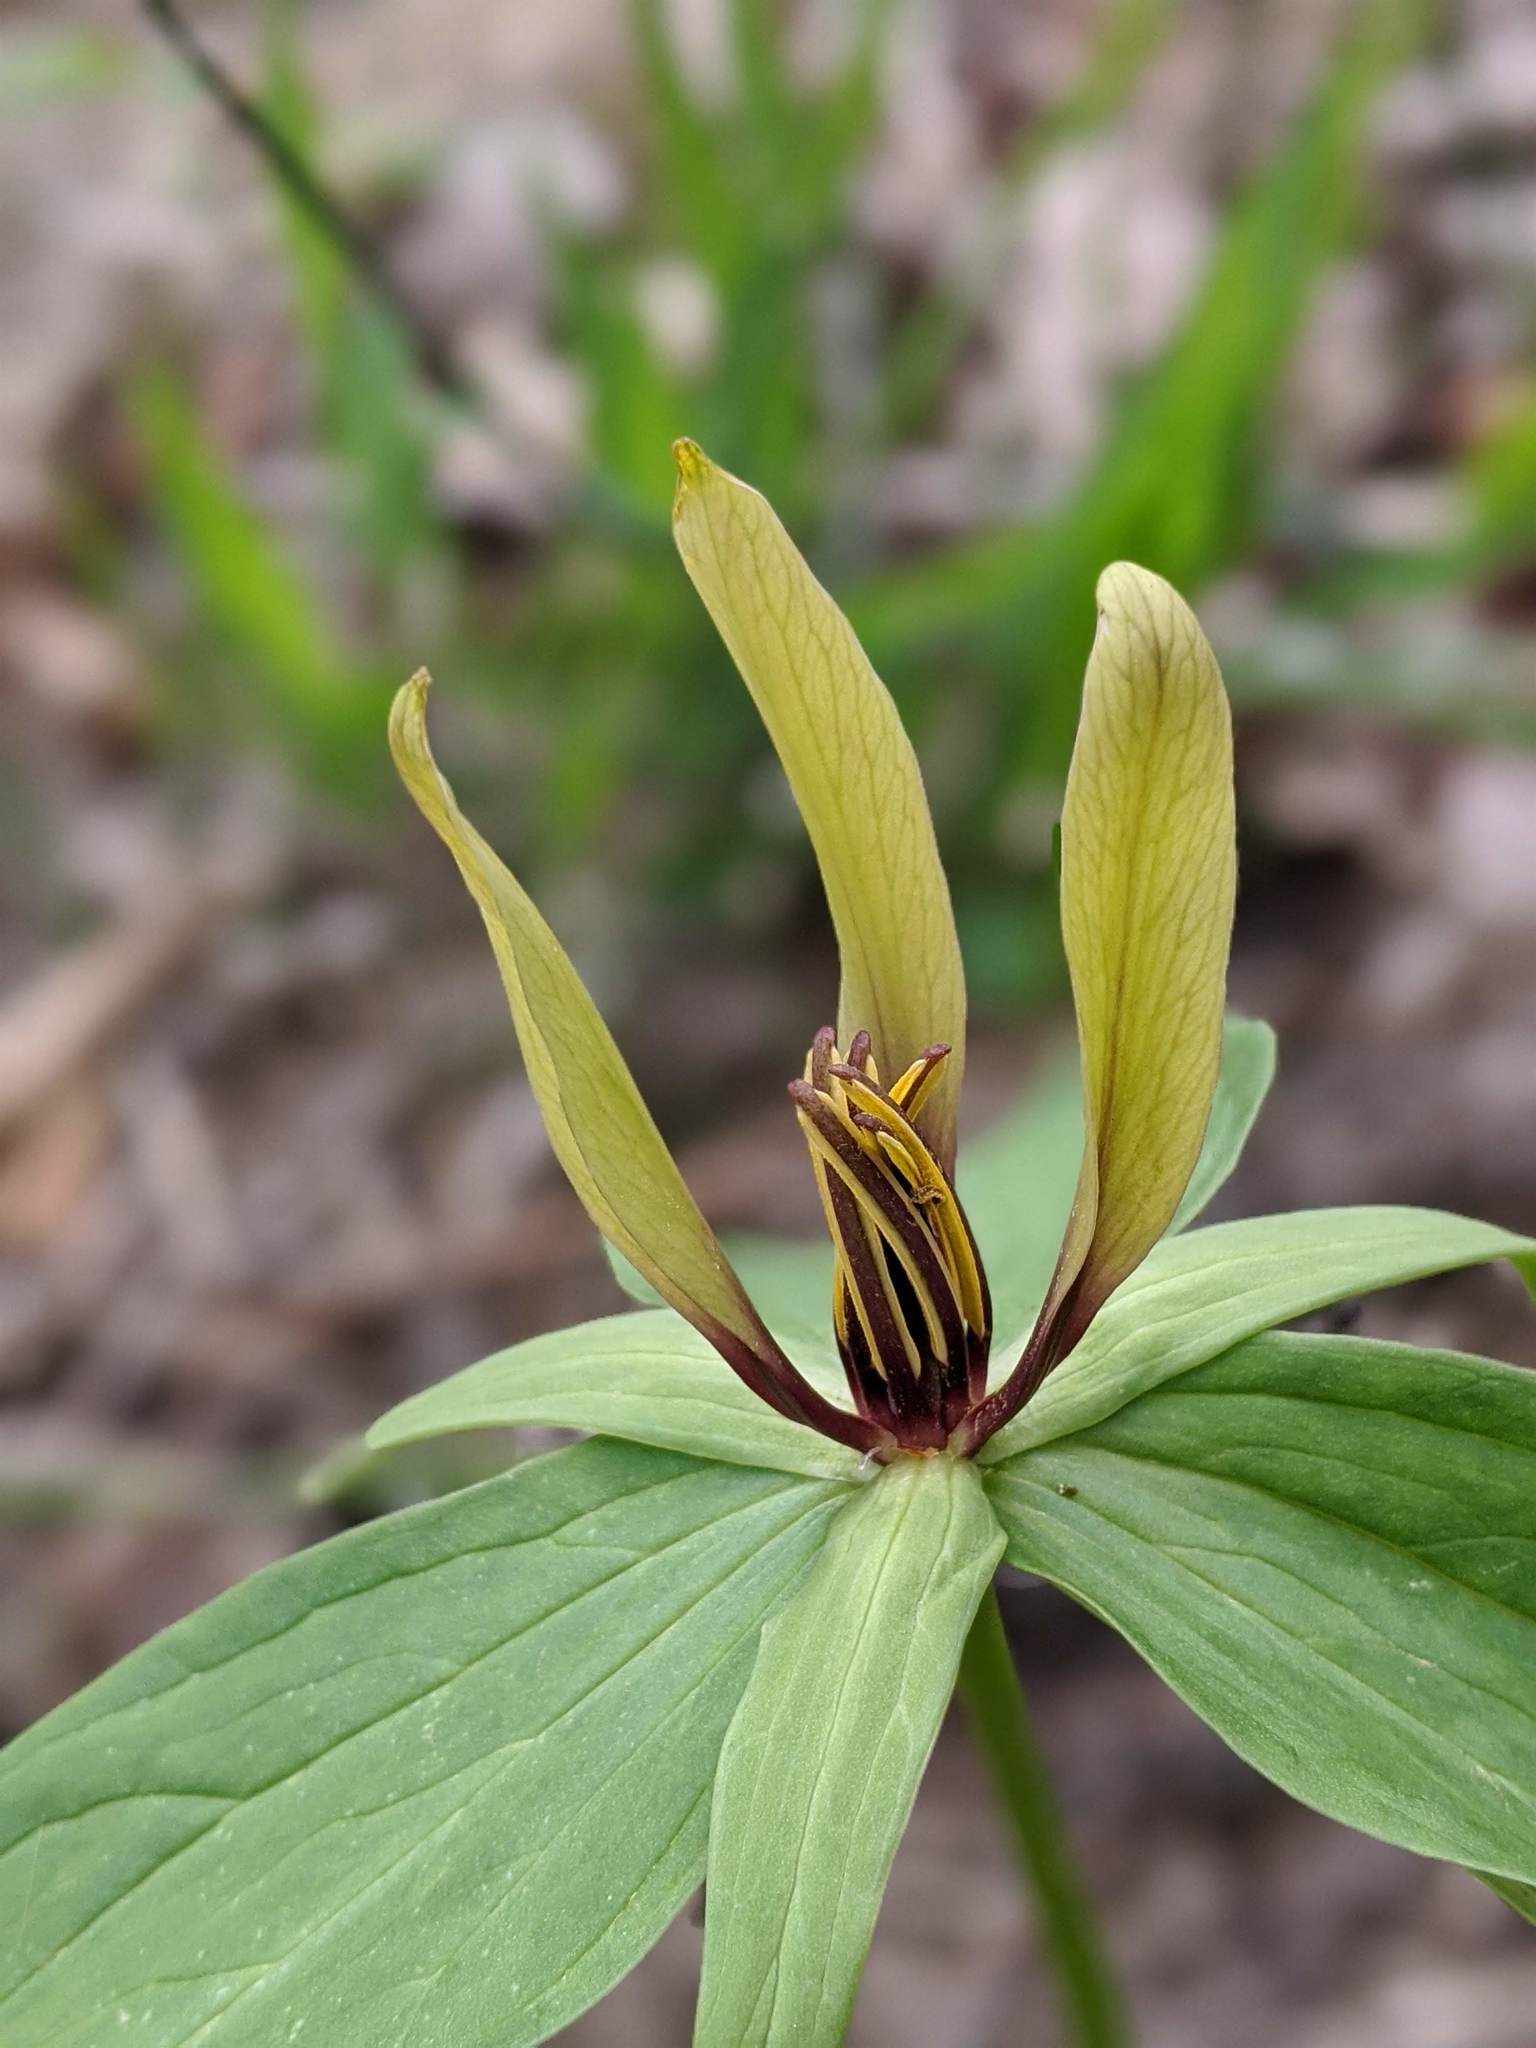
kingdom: Plantae
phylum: Tracheophyta
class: Liliopsida
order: Liliales
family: Melanthiaceae
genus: Trillium
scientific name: Trillium viride
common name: Green trillium
